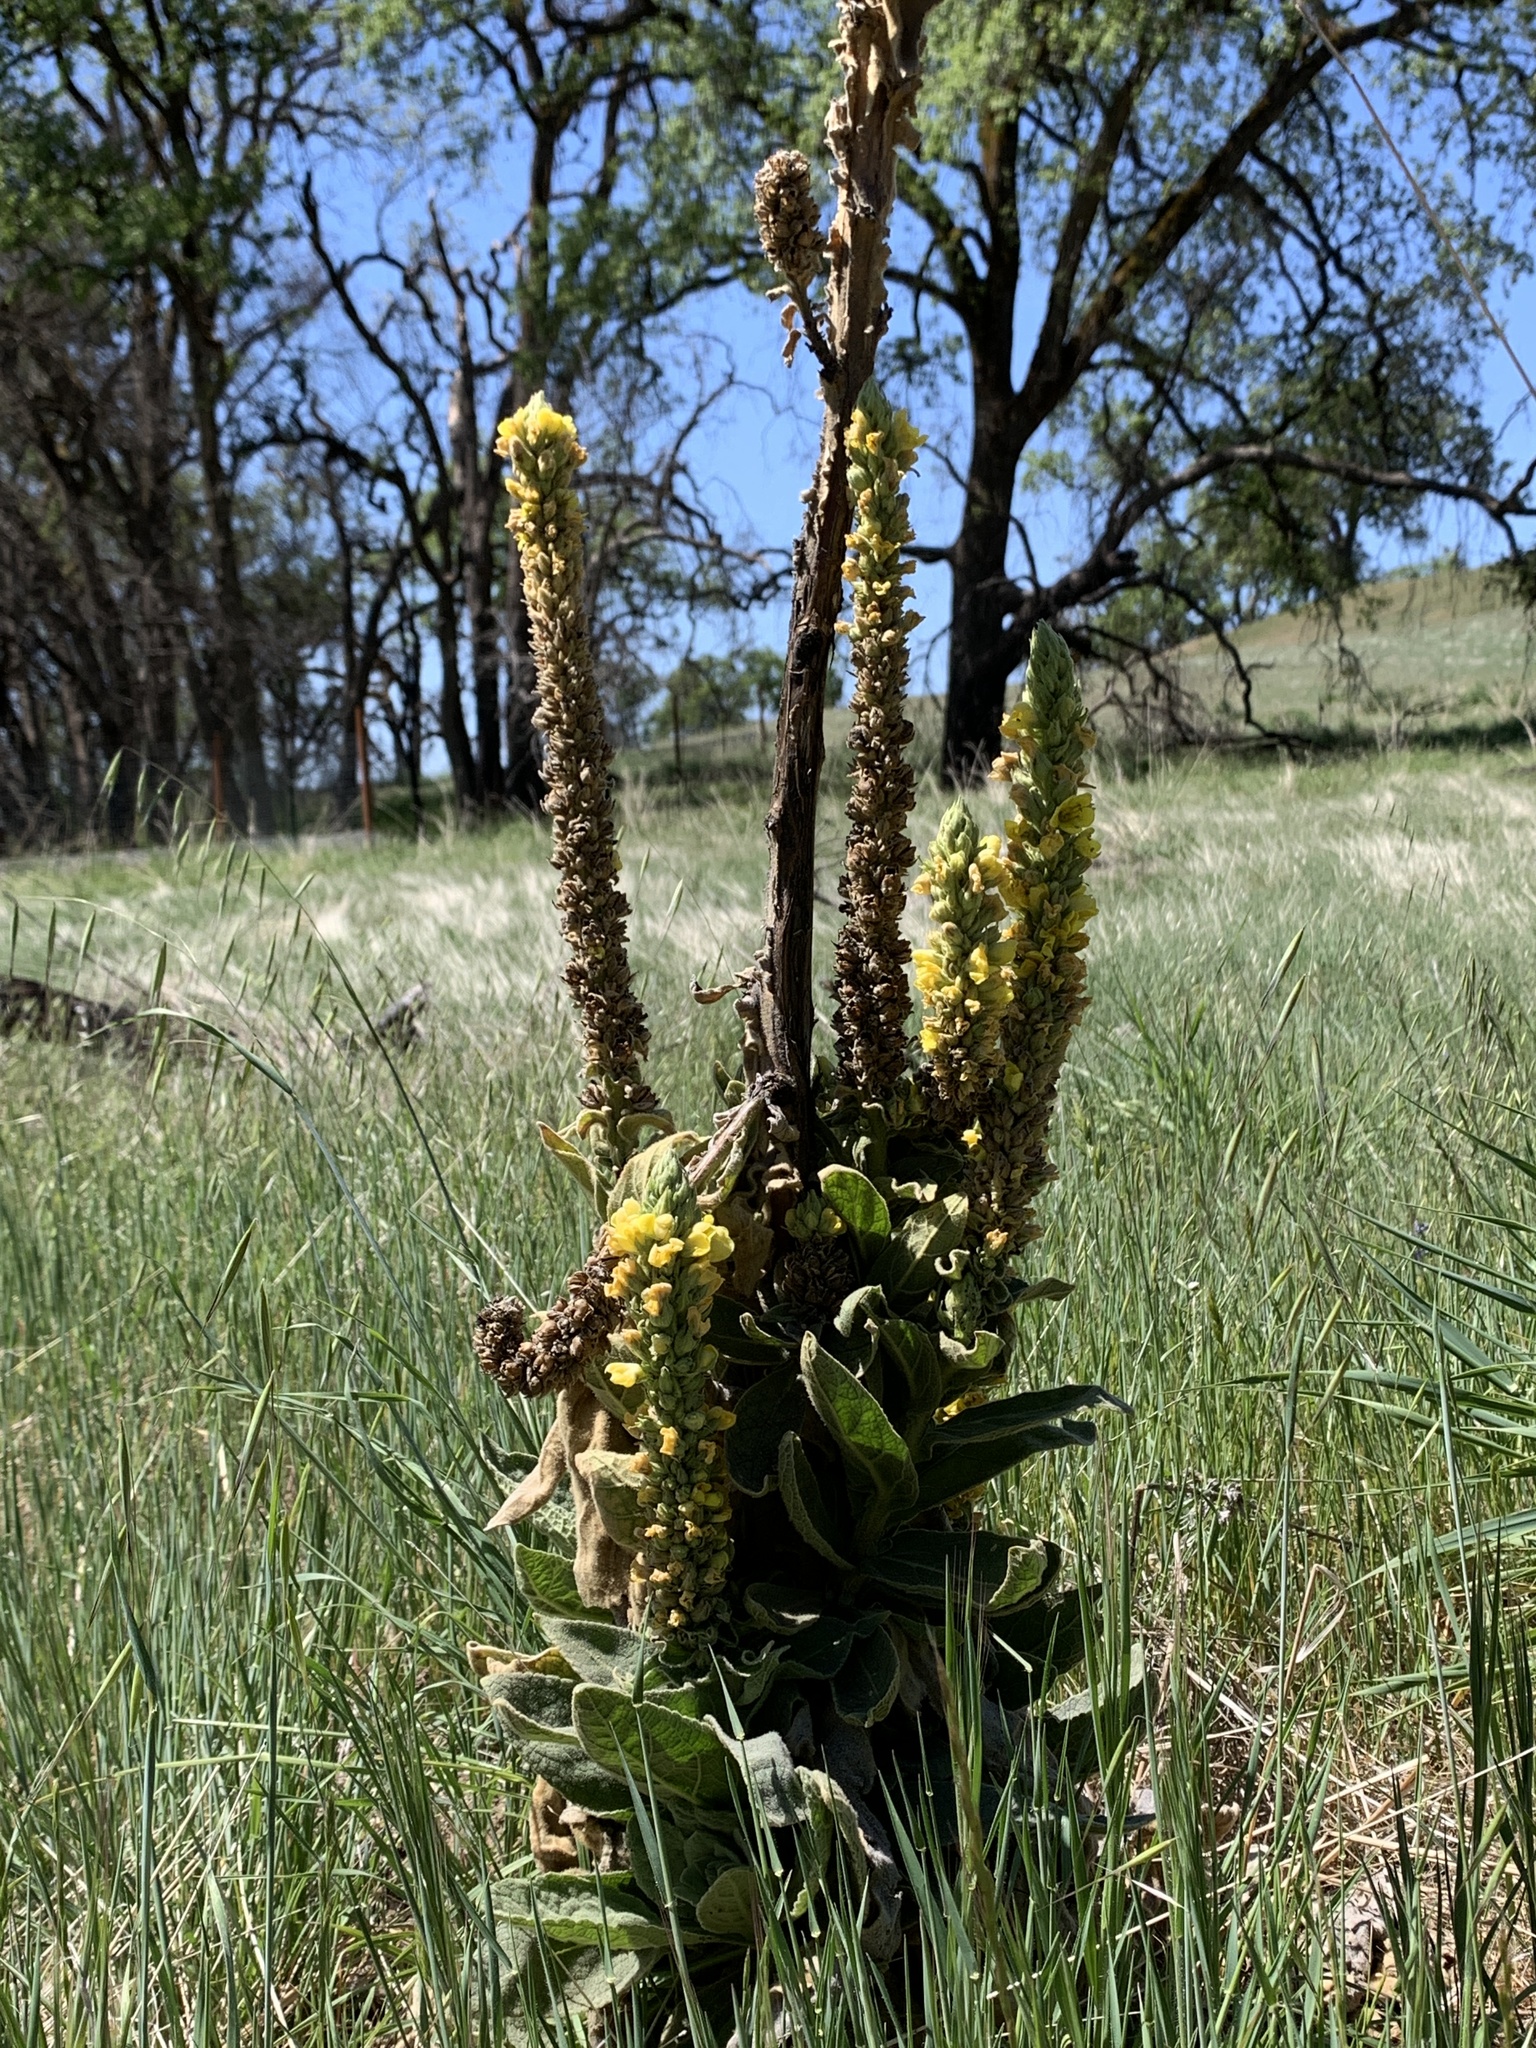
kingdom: Plantae
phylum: Tracheophyta
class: Magnoliopsida
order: Lamiales
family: Scrophulariaceae
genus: Verbascum
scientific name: Verbascum thapsus
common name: Common mullein
